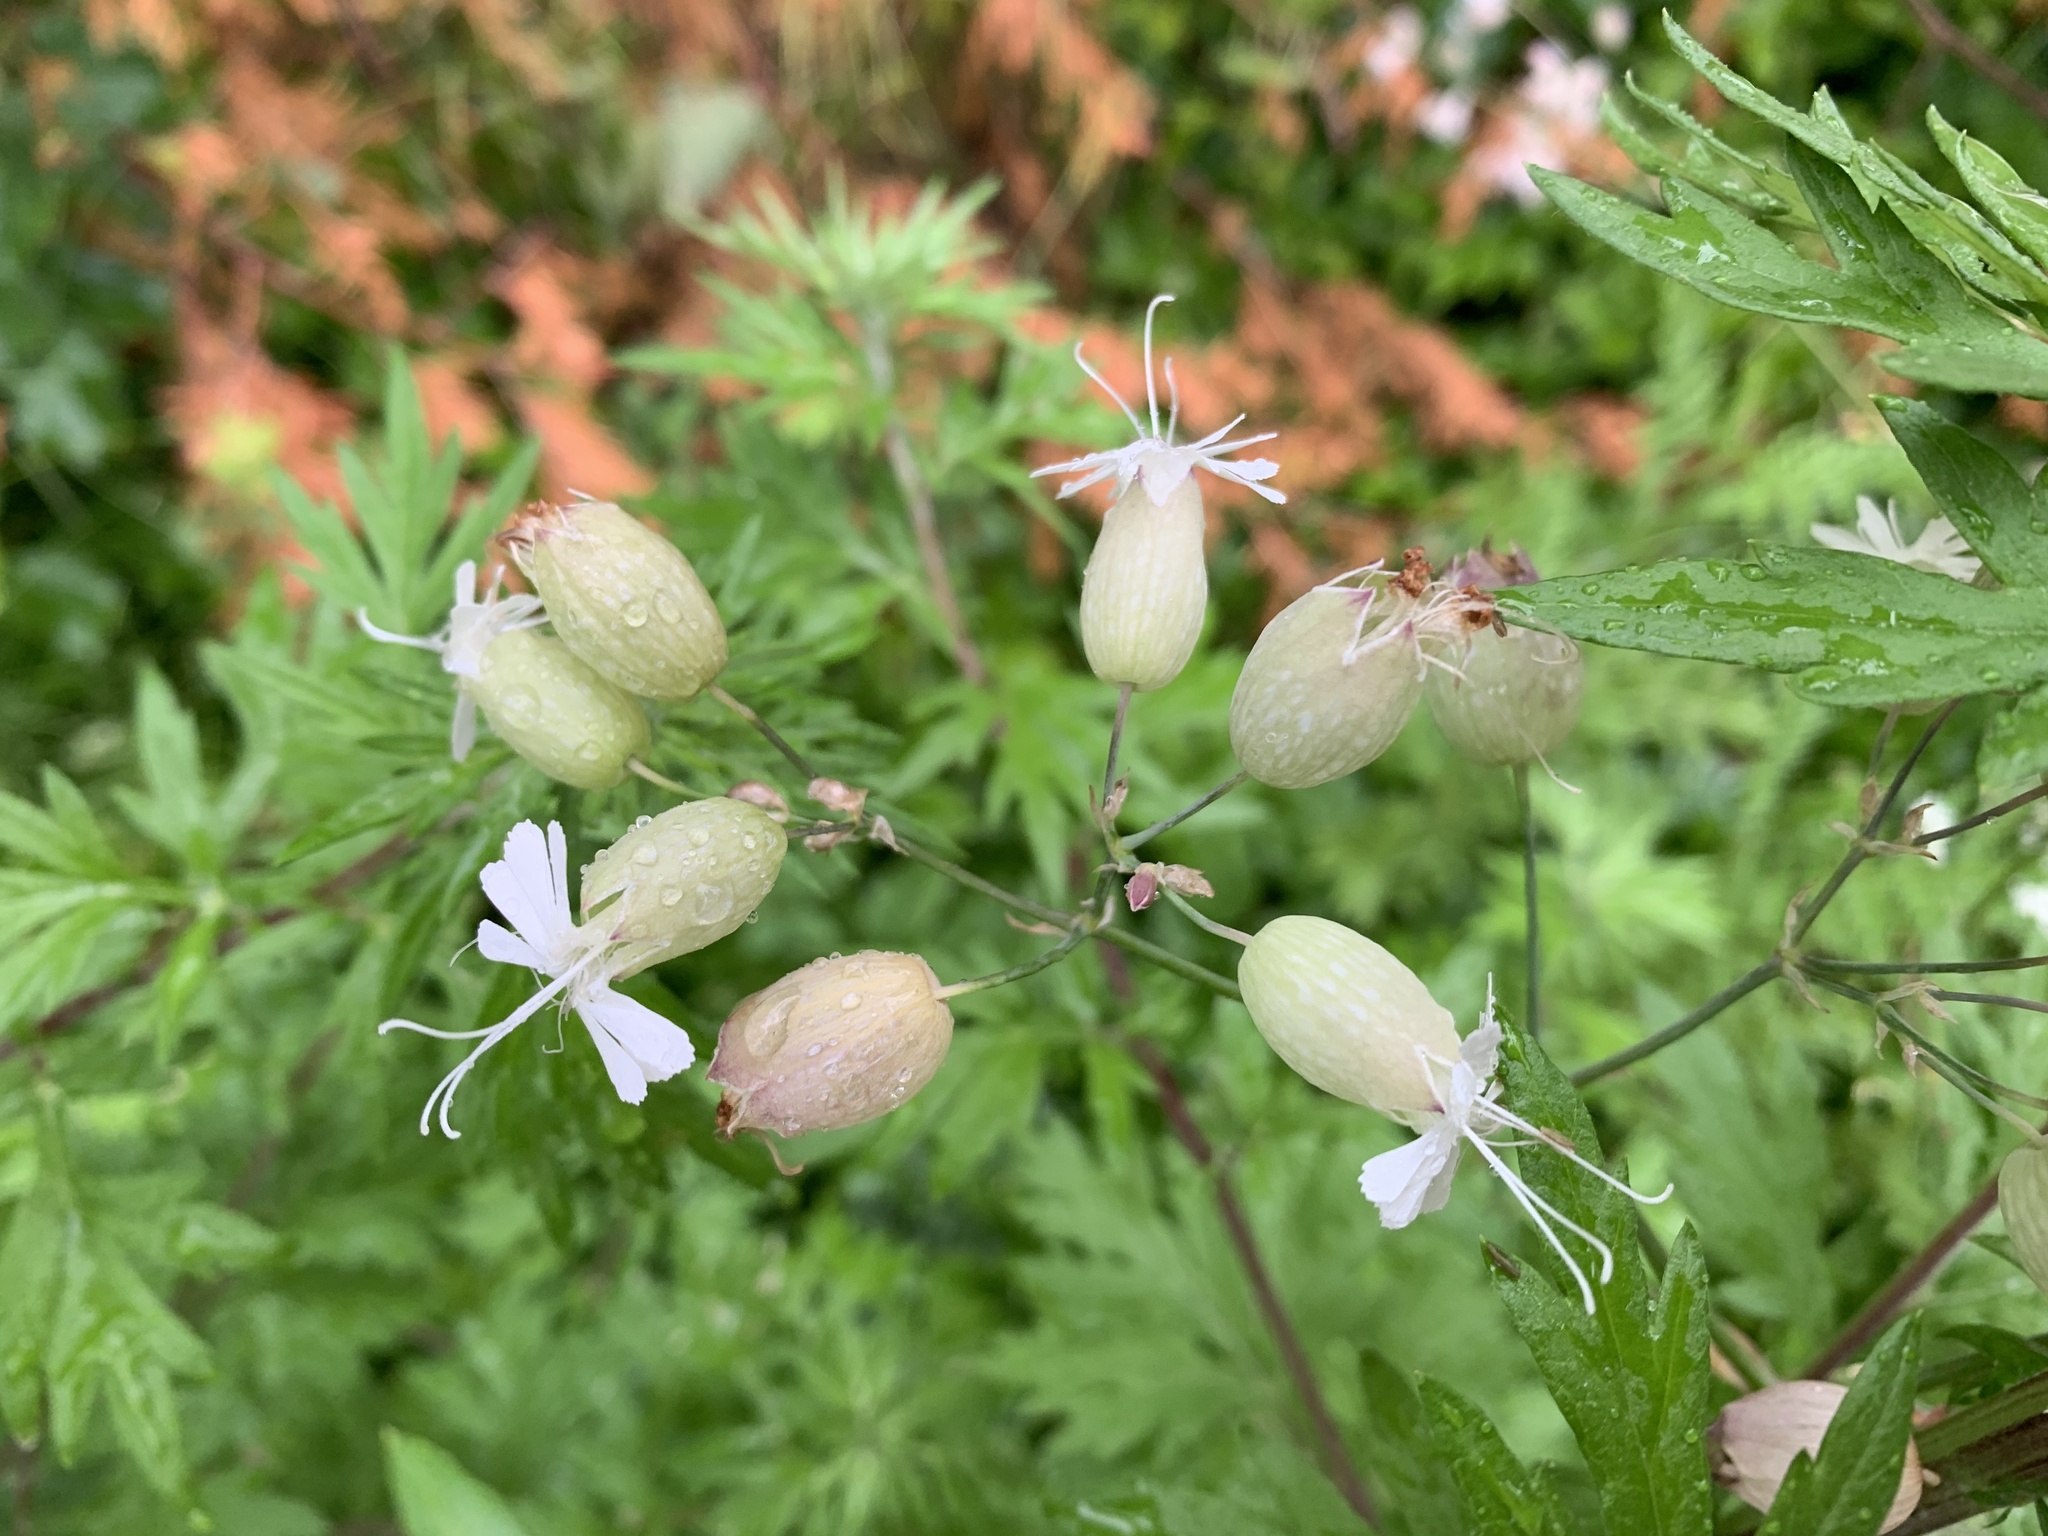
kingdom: Plantae
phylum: Tracheophyta
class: Magnoliopsida
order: Caryophyllales
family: Caryophyllaceae
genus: Silene
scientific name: Silene vulgaris
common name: Bladder campion
